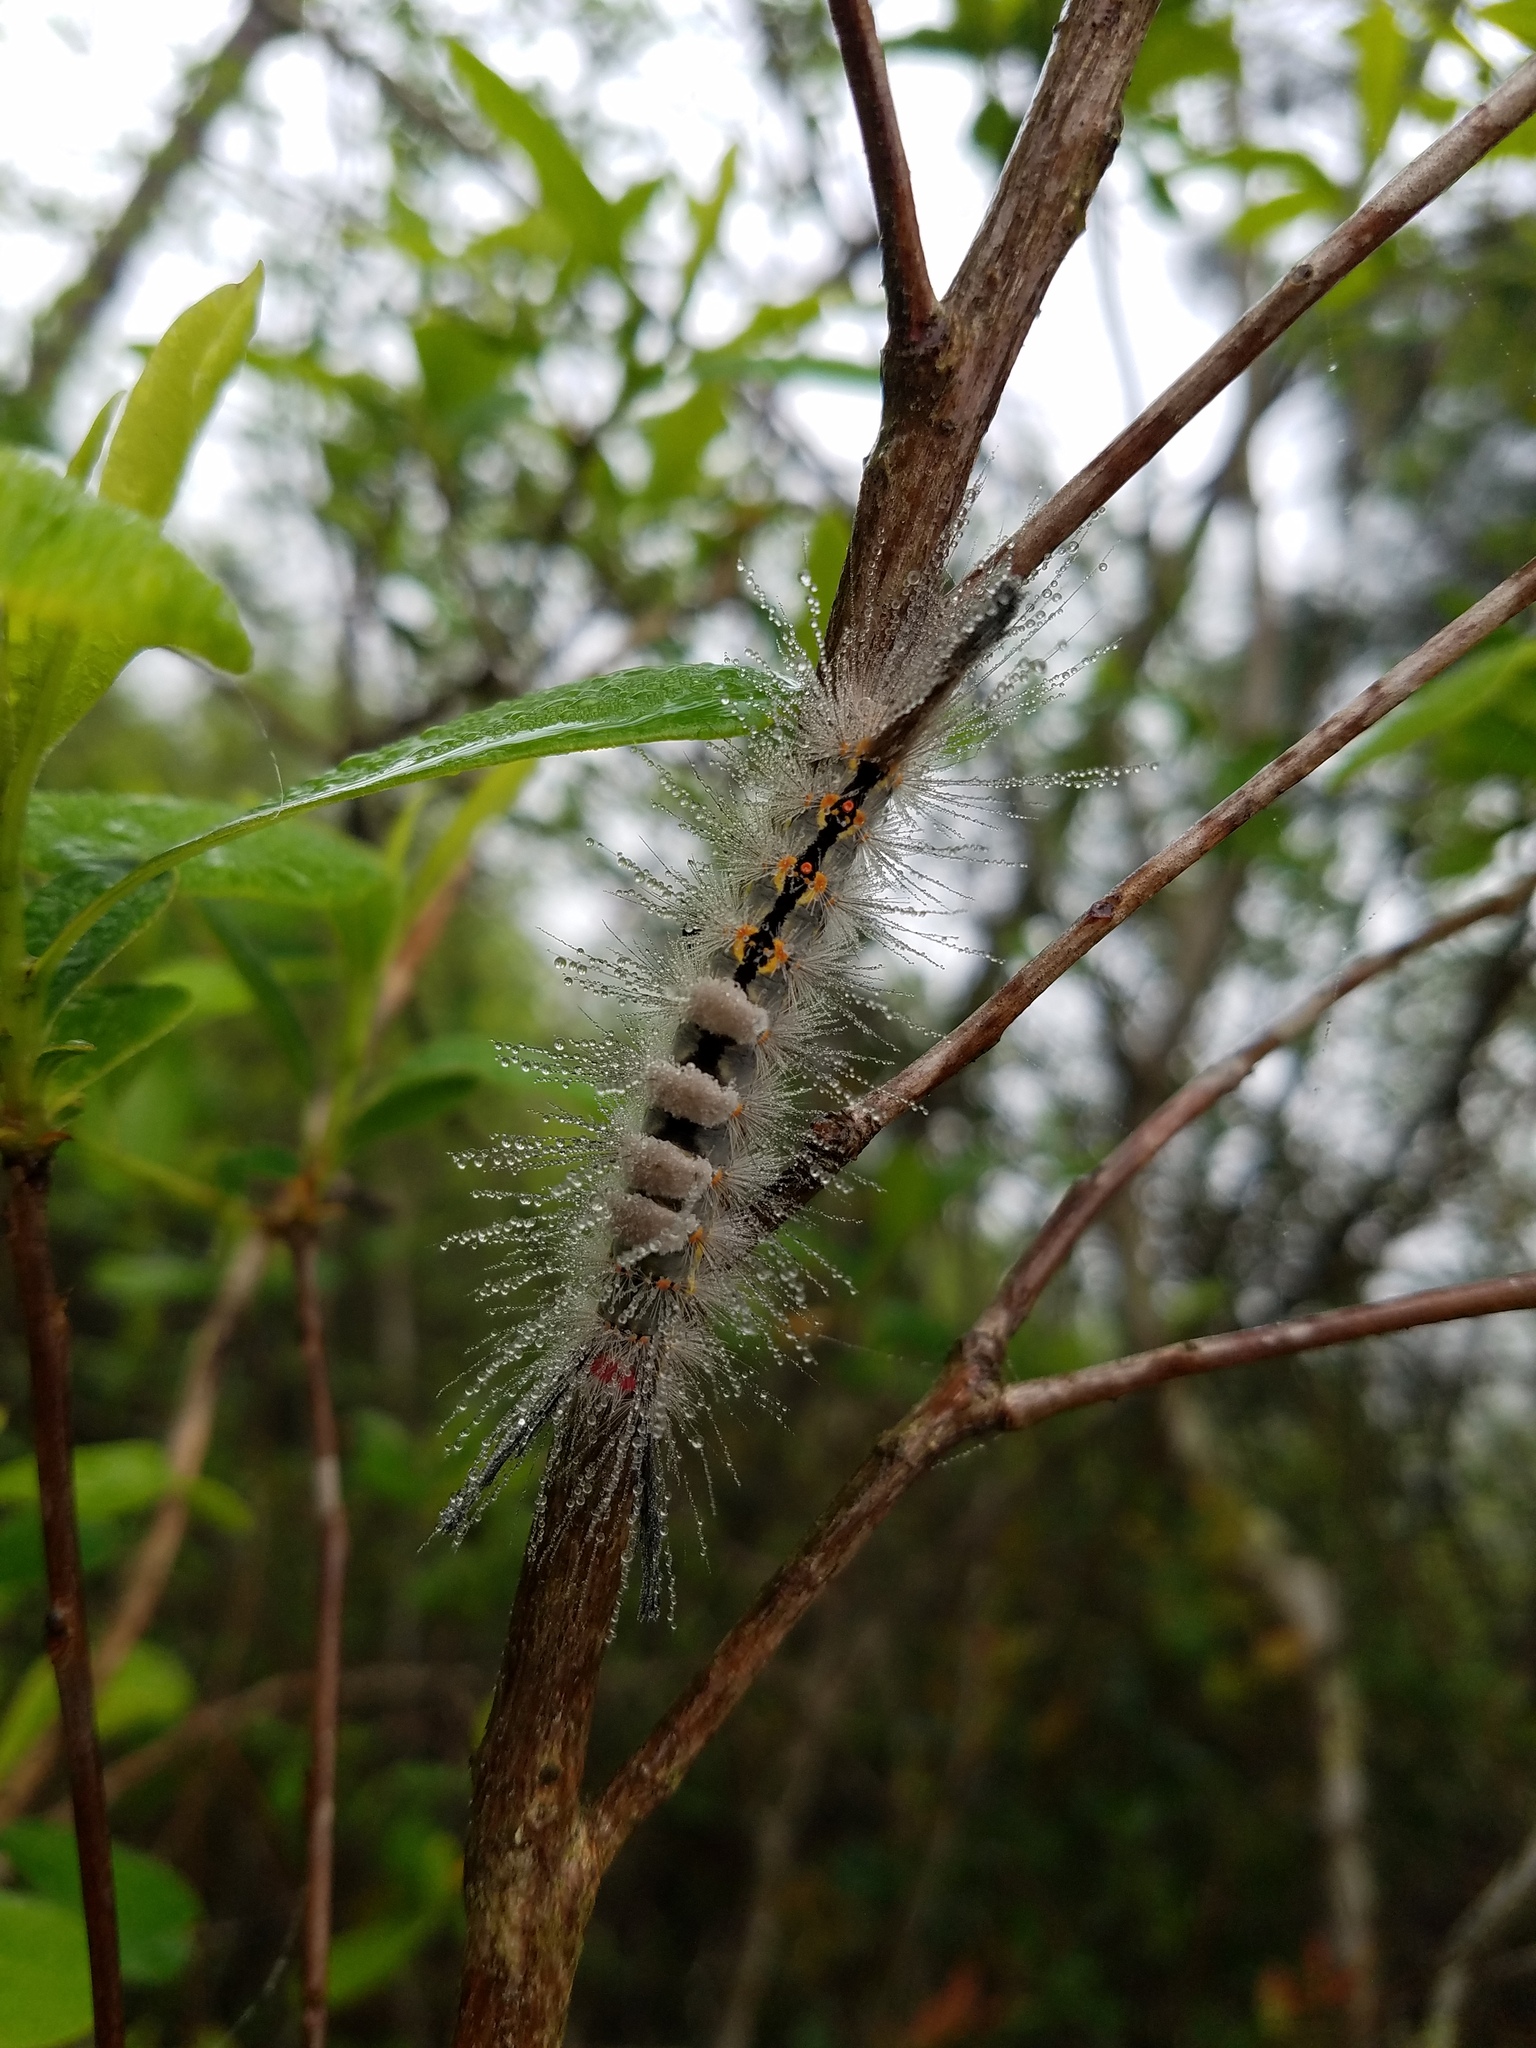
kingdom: Animalia
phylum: Arthropoda
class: Insecta
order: Lepidoptera
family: Erebidae
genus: Orgyia
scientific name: Orgyia detrita
